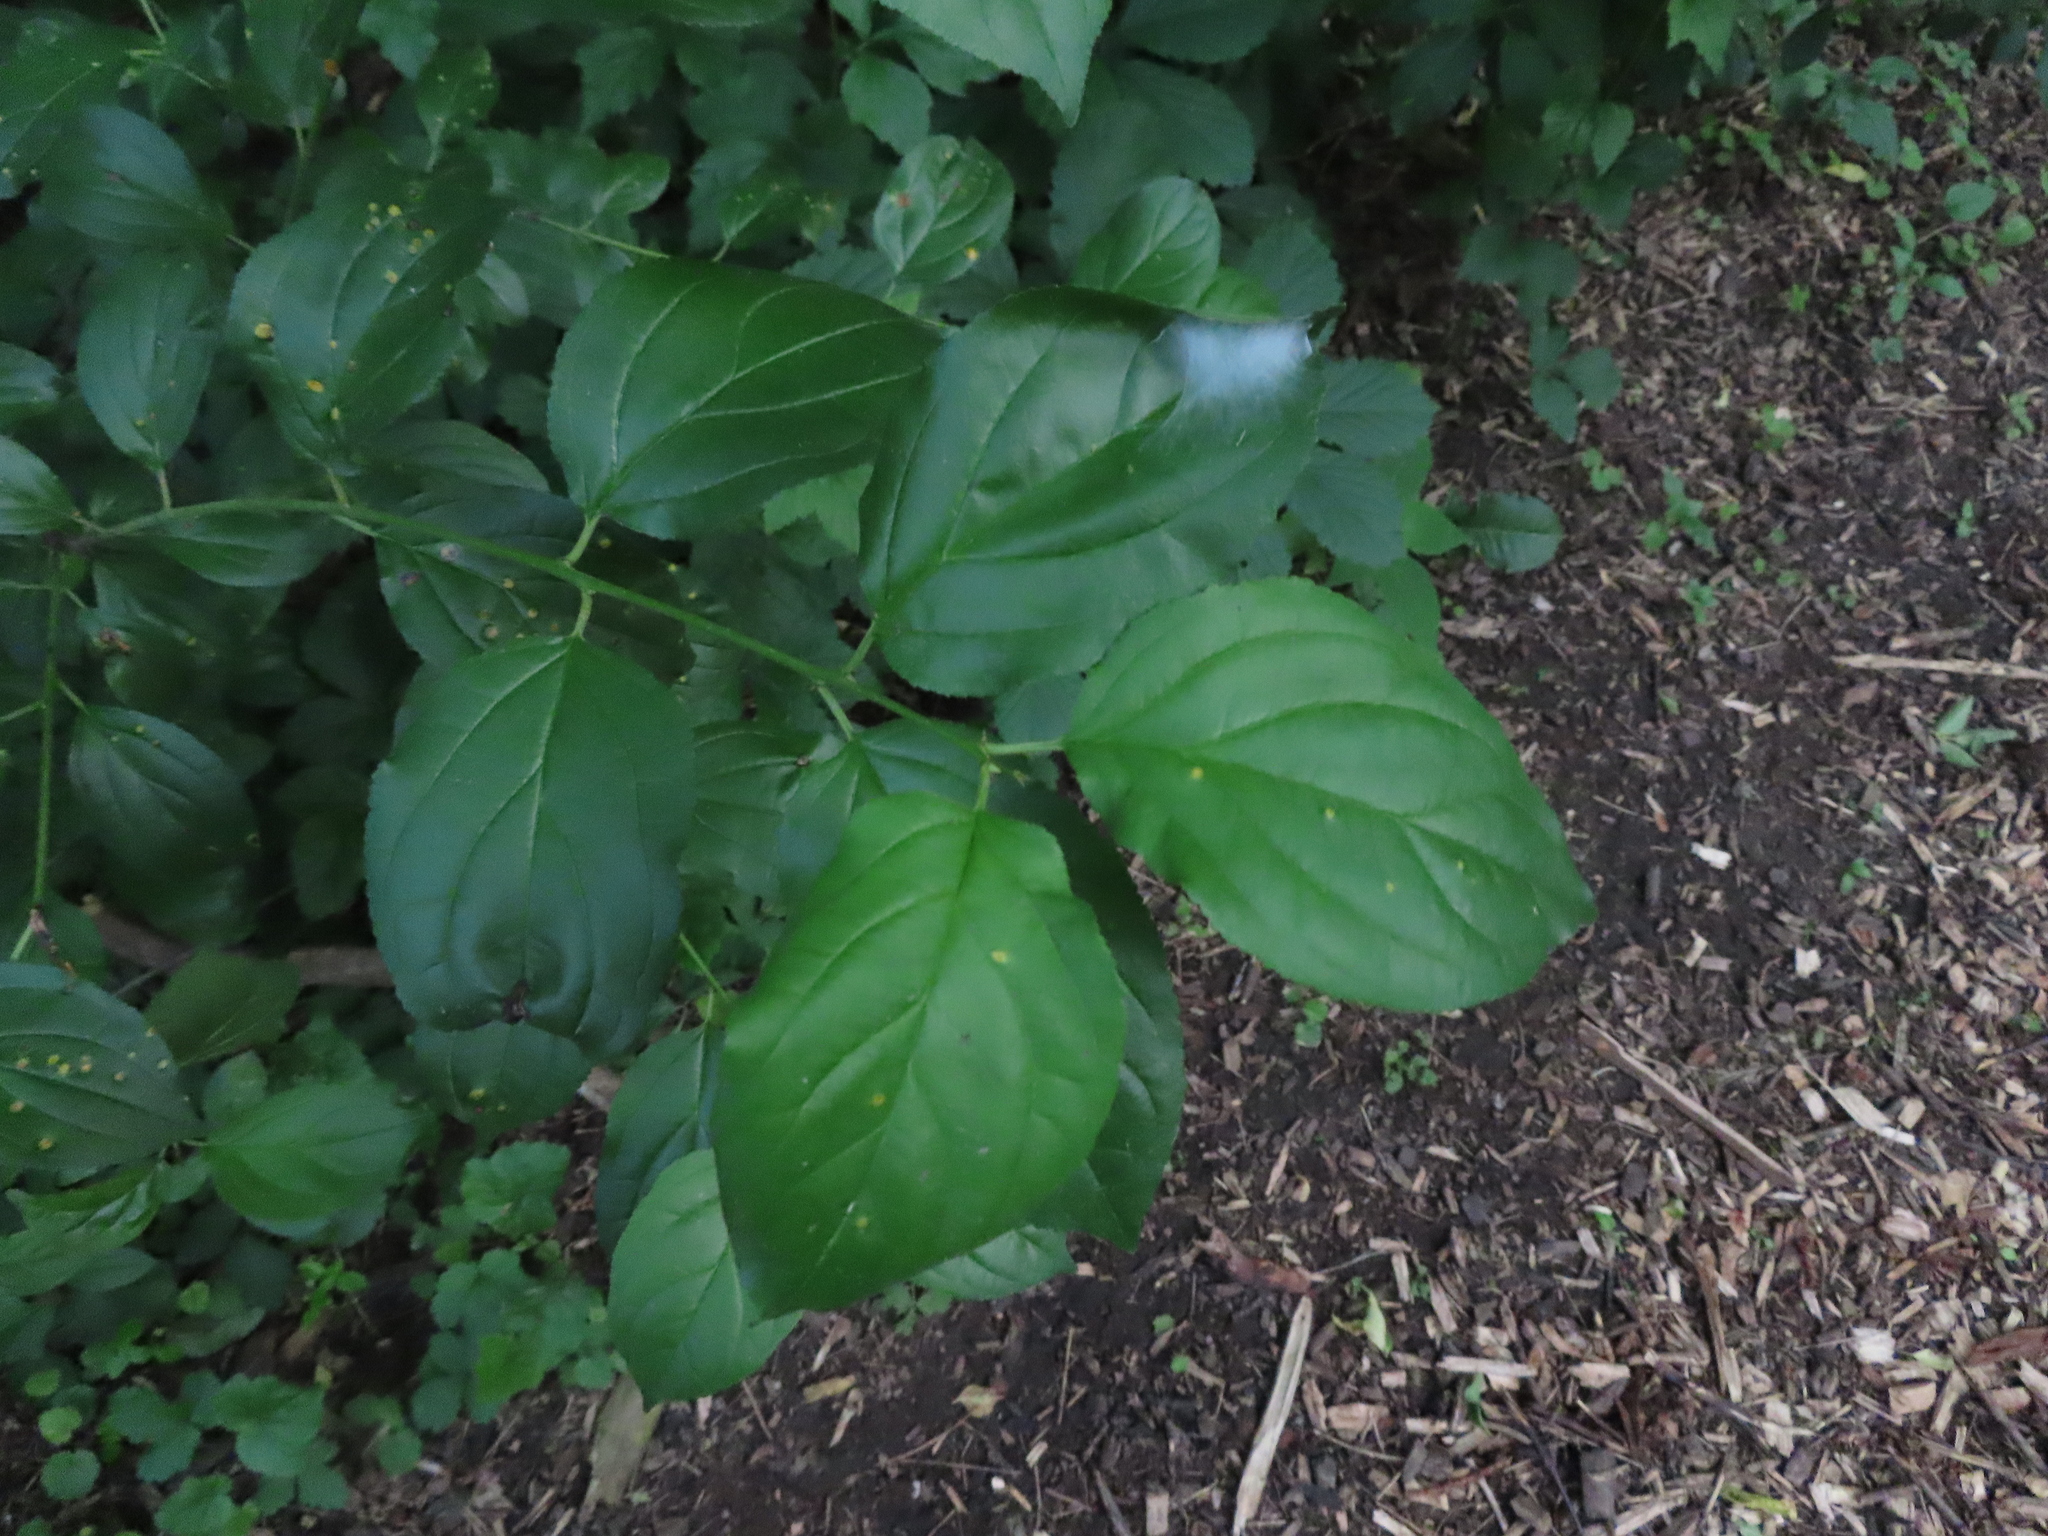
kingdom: Plantae
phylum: Tracheophyta
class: Magnoliopsida
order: Rosales
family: Rhamnaceae
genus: Rhamnus
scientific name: Rhamnus cathartica
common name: Common buckthorn
